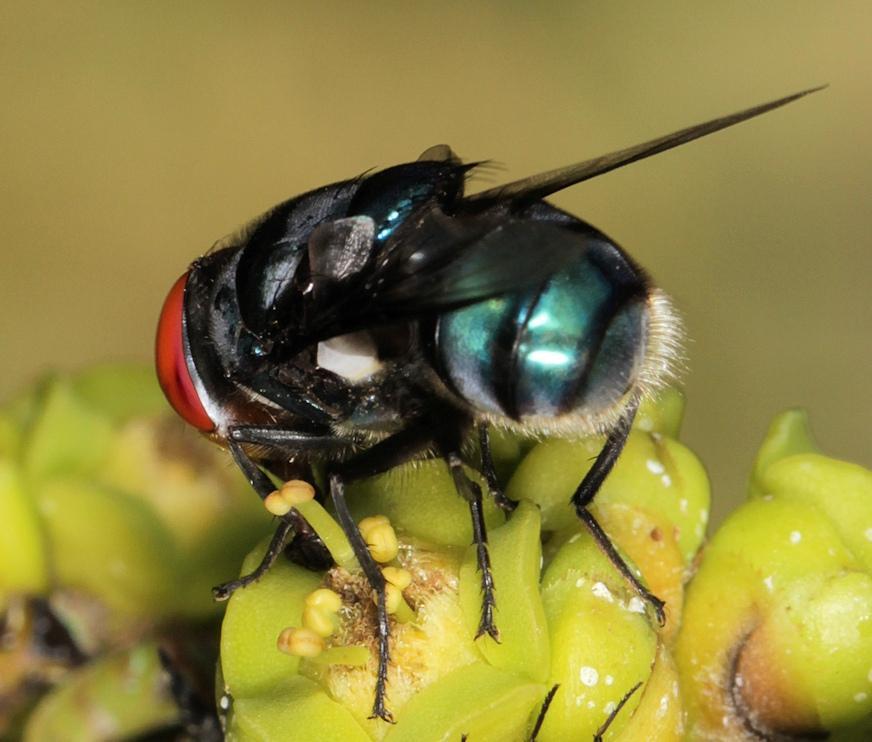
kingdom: Animalia
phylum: Arthropoda
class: Insecta
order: Diptera
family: Calliphoridae
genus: Chrysomya
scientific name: Chrysomya marginalis
